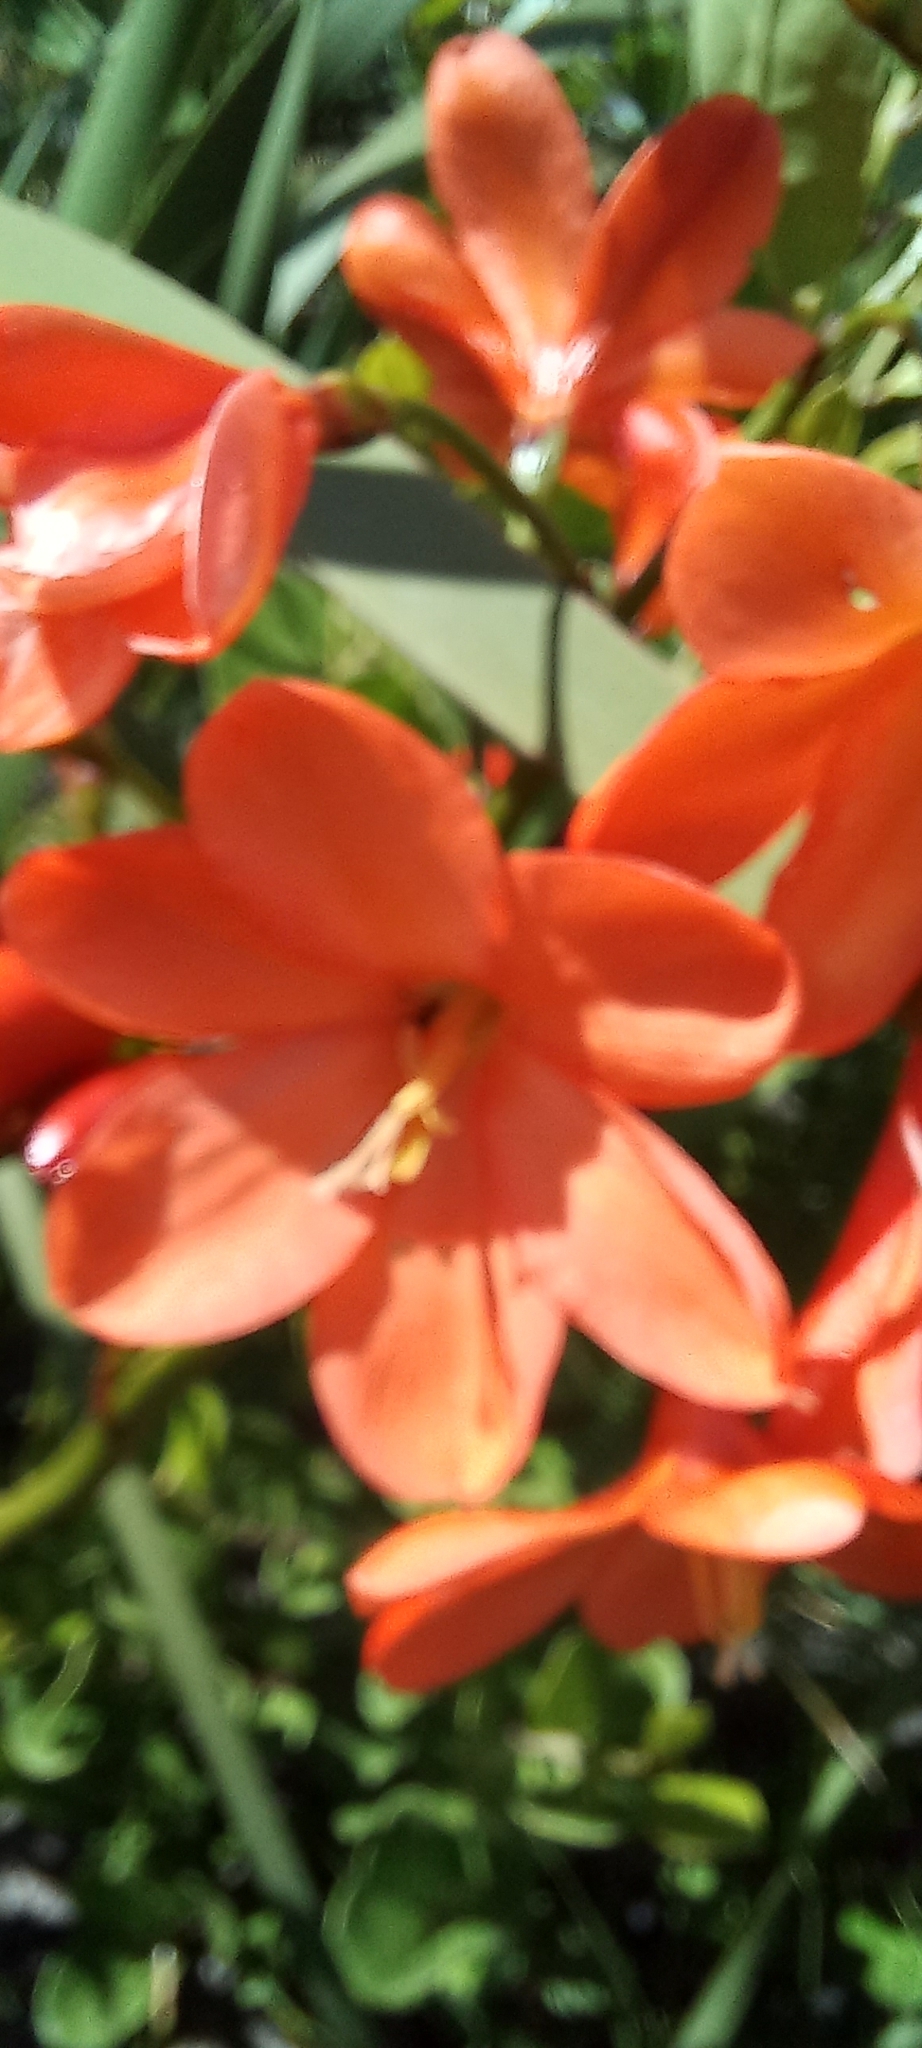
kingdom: Plantae
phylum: Tracheophyta
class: Liliopsida
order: Asparagales
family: Iridaceae
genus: Pillansia
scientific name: Pillansia templemannii
